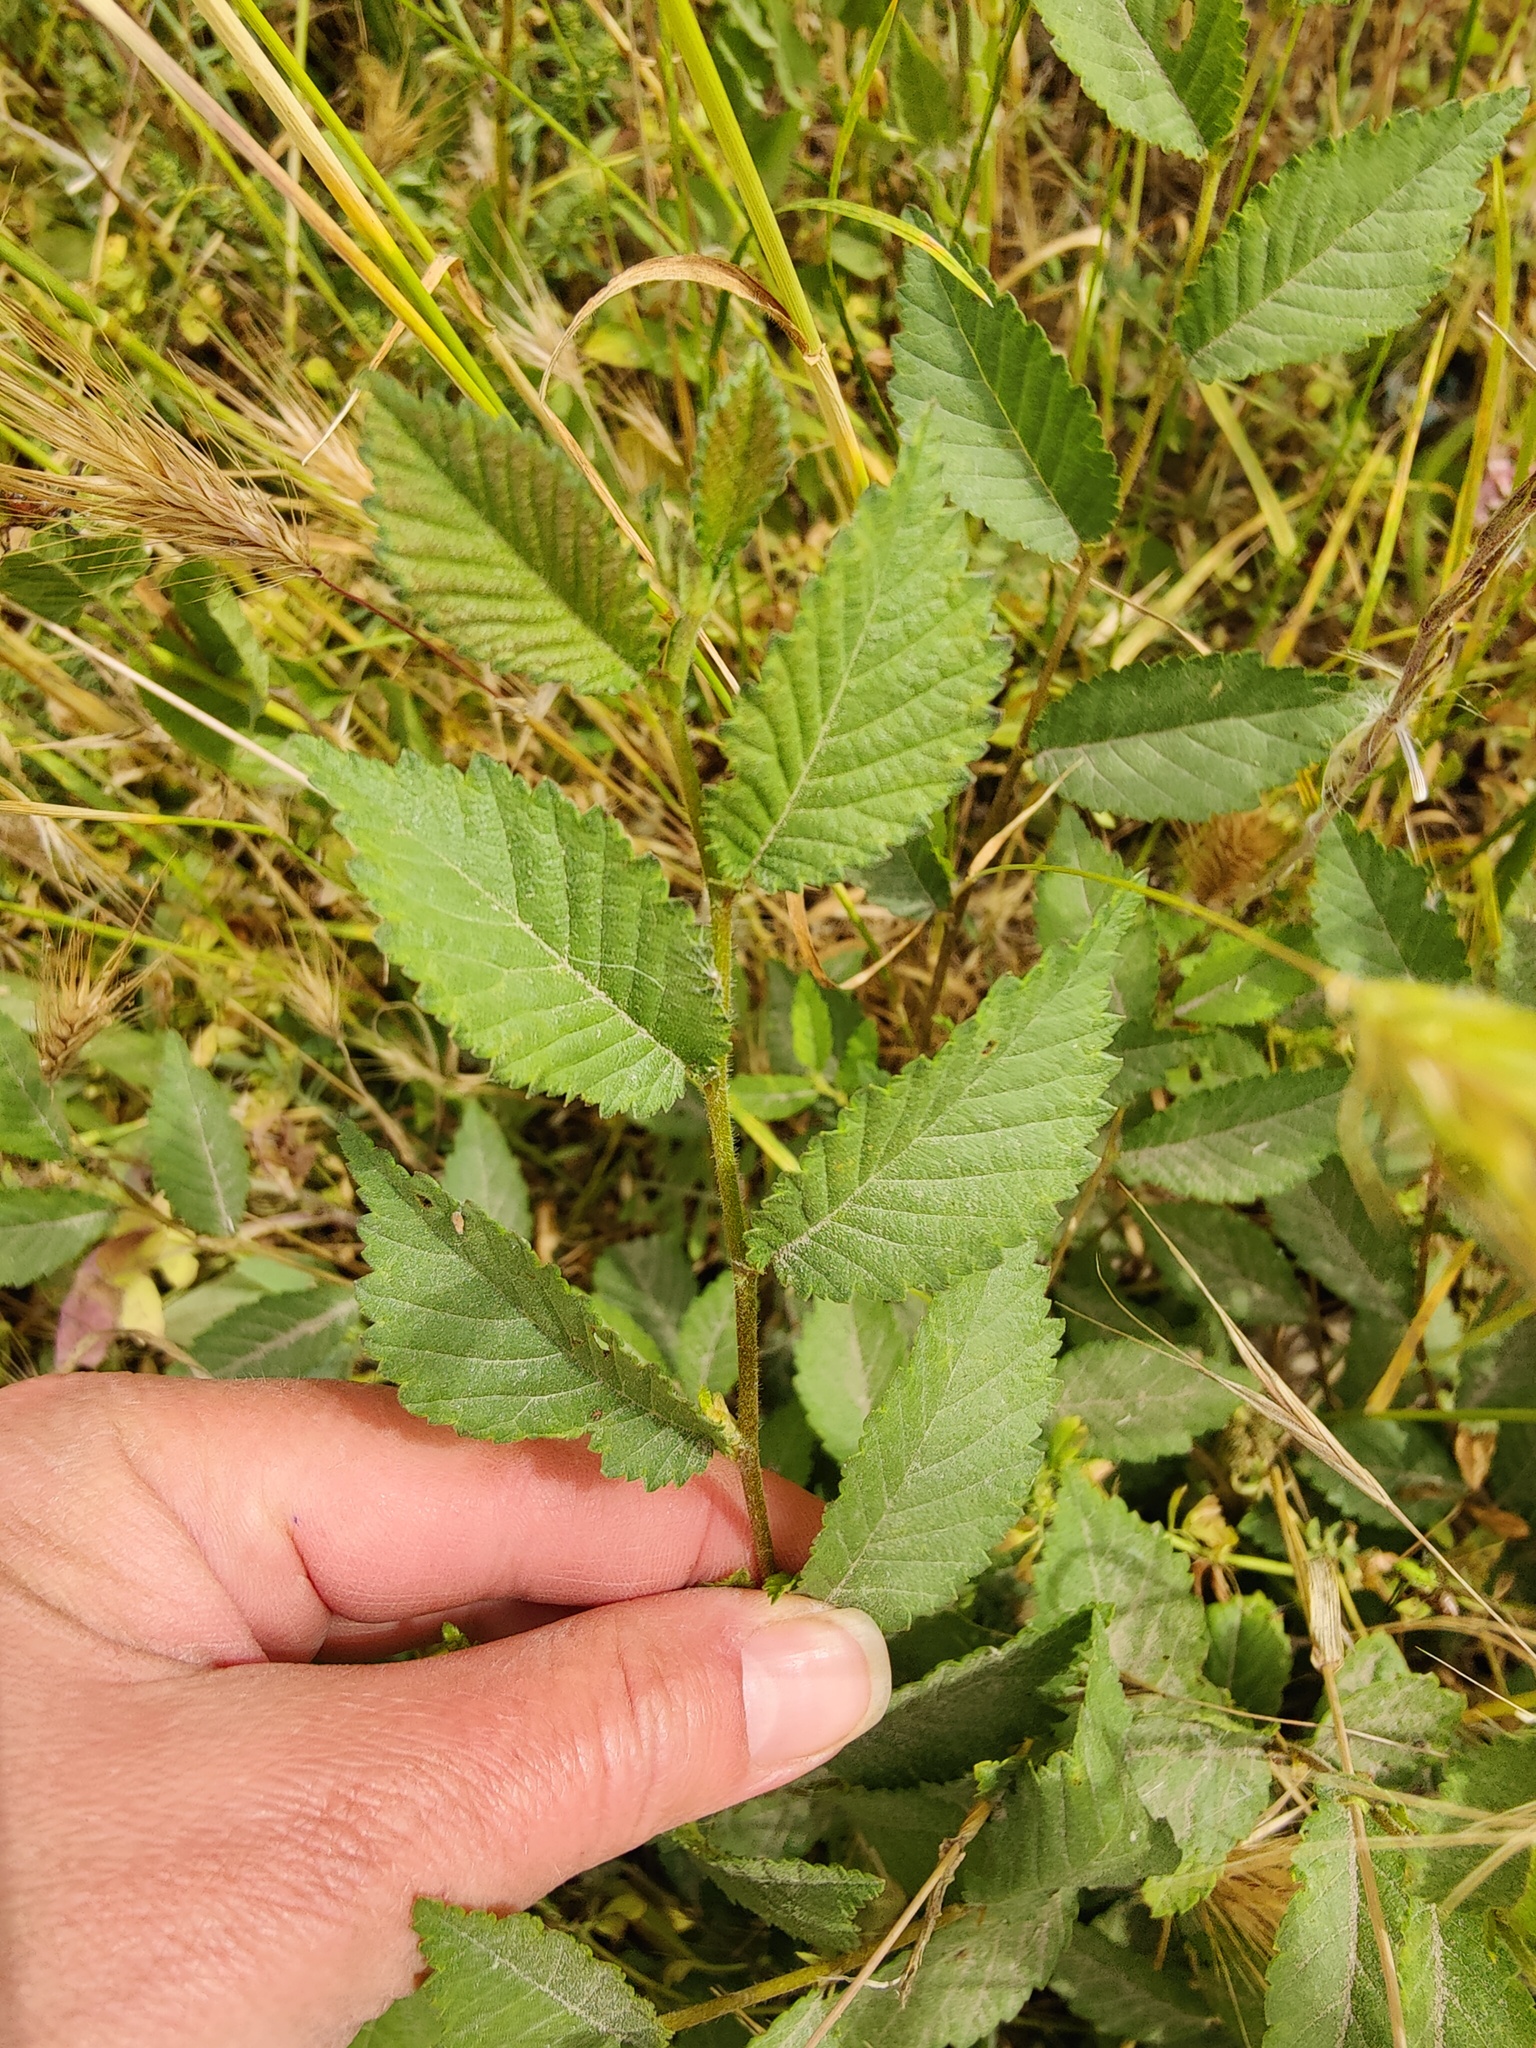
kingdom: Plantae
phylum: Tracheophyta
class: Magnoliopsida
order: Rosales
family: Ulmaceae
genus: Ulmus
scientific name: Ulmus minor
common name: Small-leaved elm
